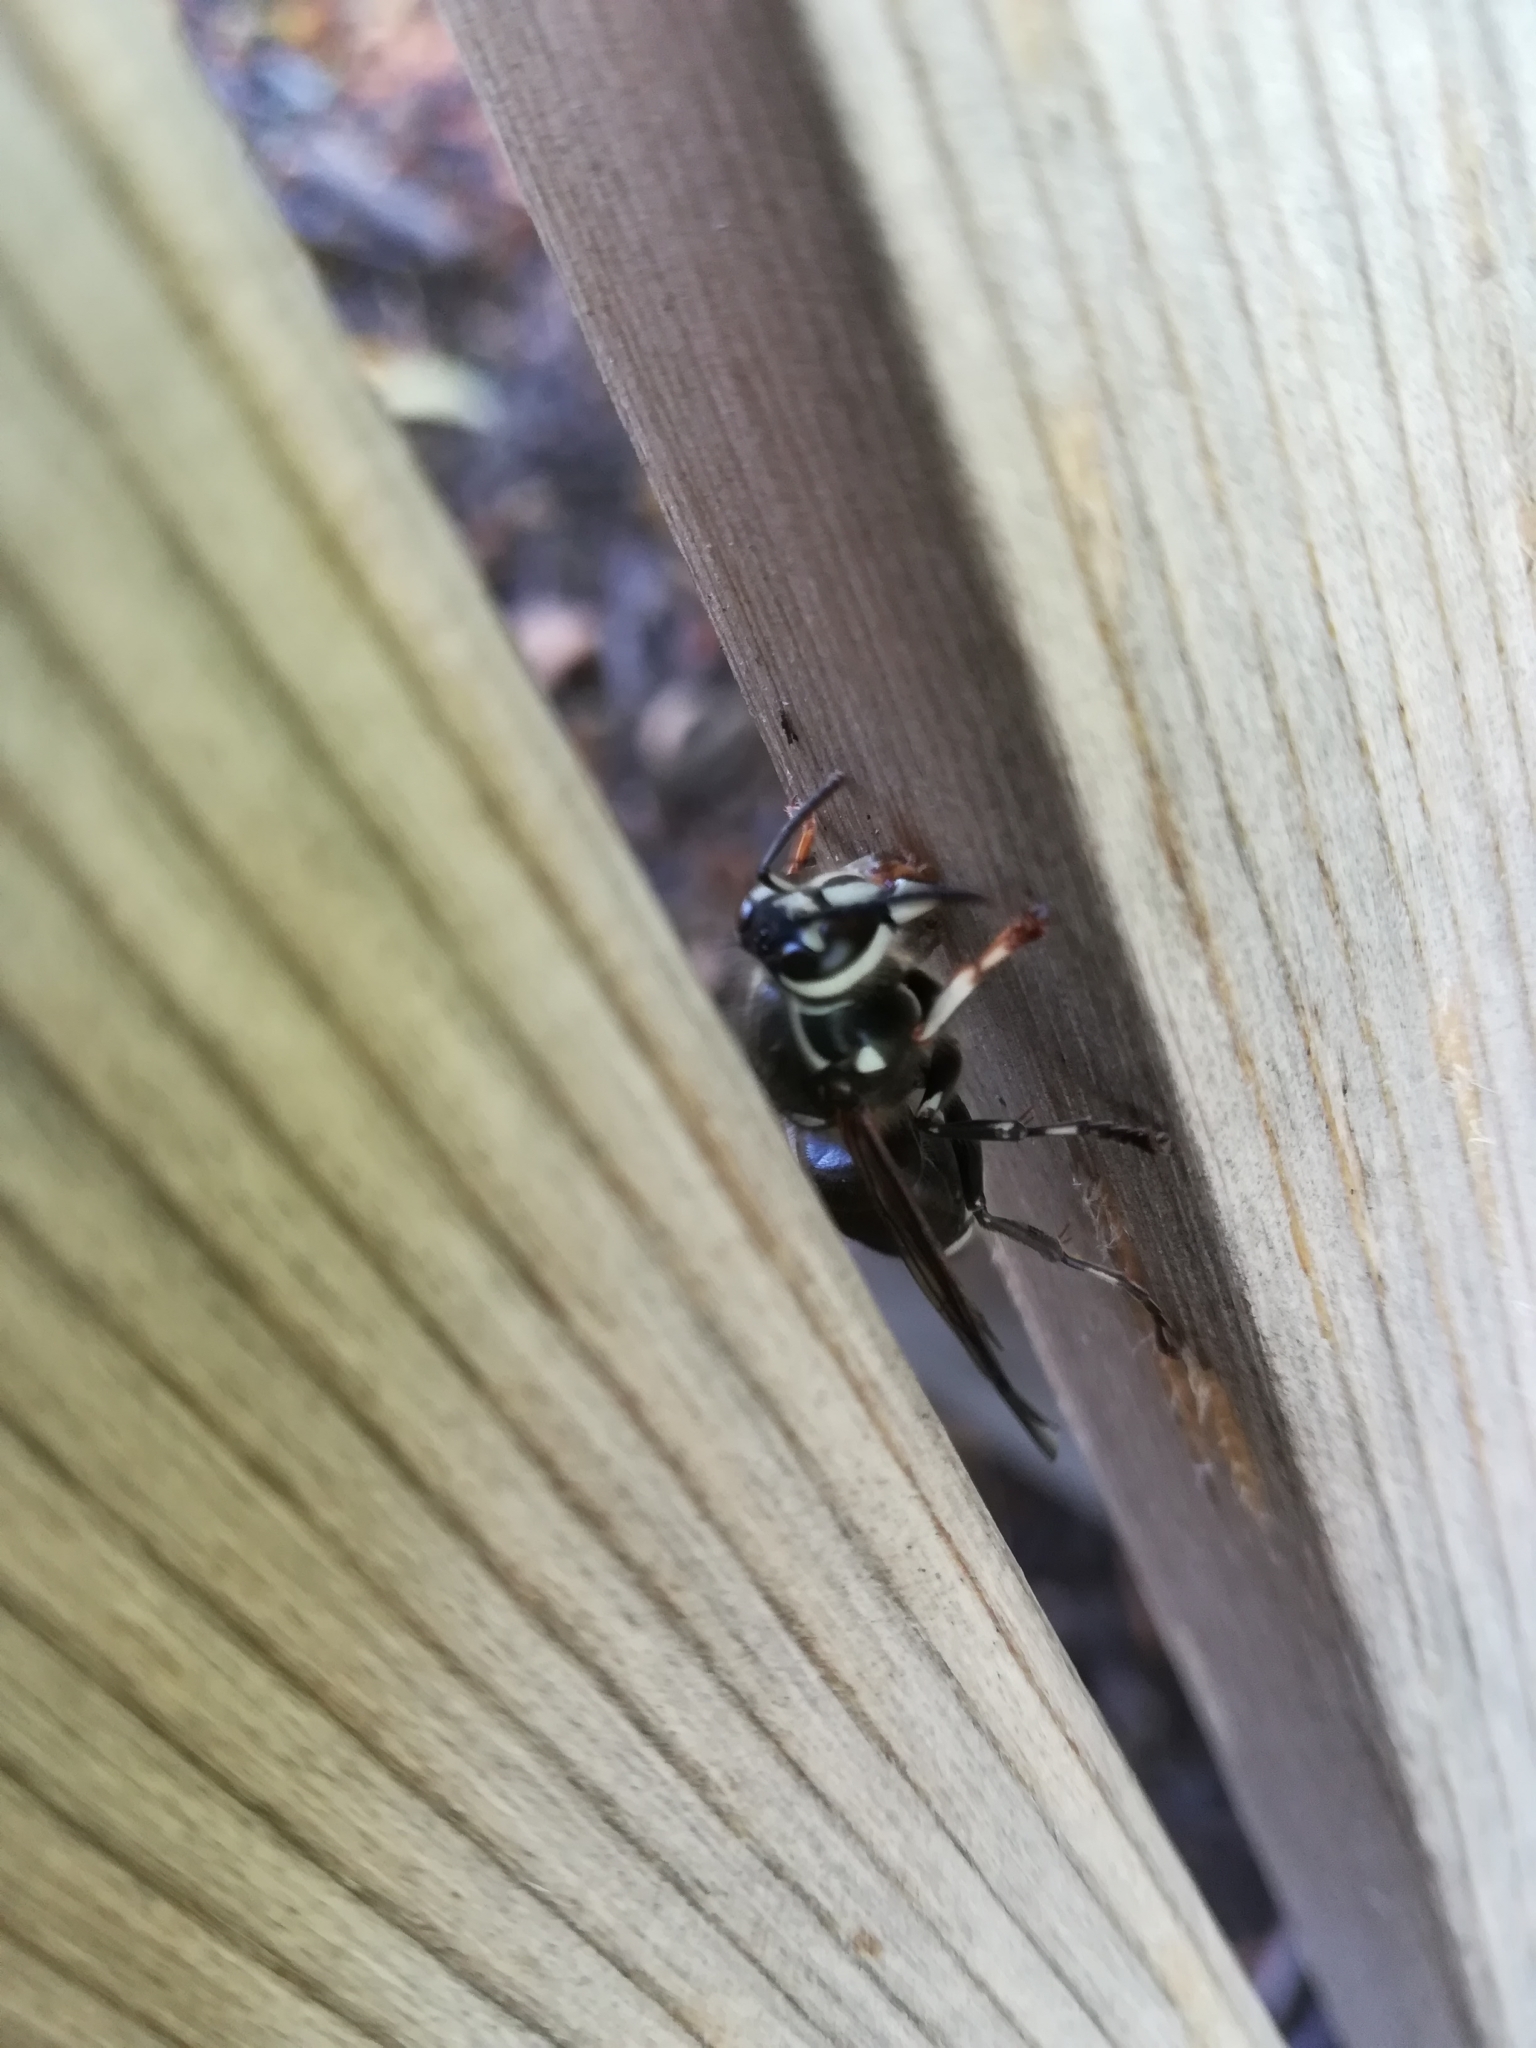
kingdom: Animalia
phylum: Arthropoda
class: Insecta
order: Hymenoptera
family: Vespidae
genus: Dolichovespula
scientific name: Dolichovespula maculata
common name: Bald-faced hornet
